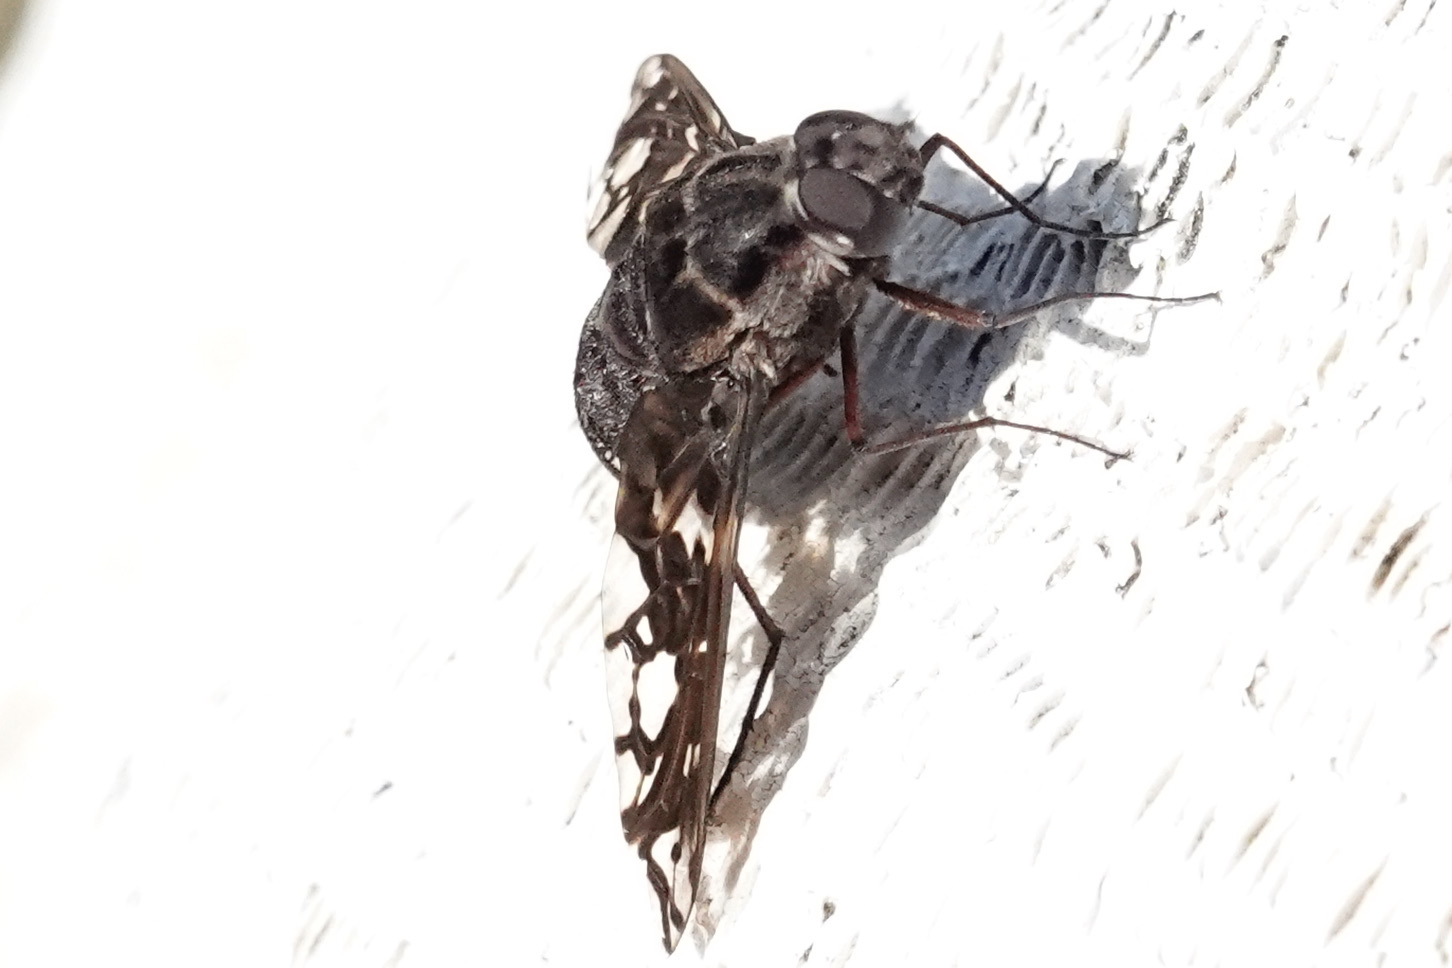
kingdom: Animalia
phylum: Arthropoda
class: Insecta
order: Diptera
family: Bombyliidae
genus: Xenox
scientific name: Xenox tigrinus
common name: Tiger bee fly
